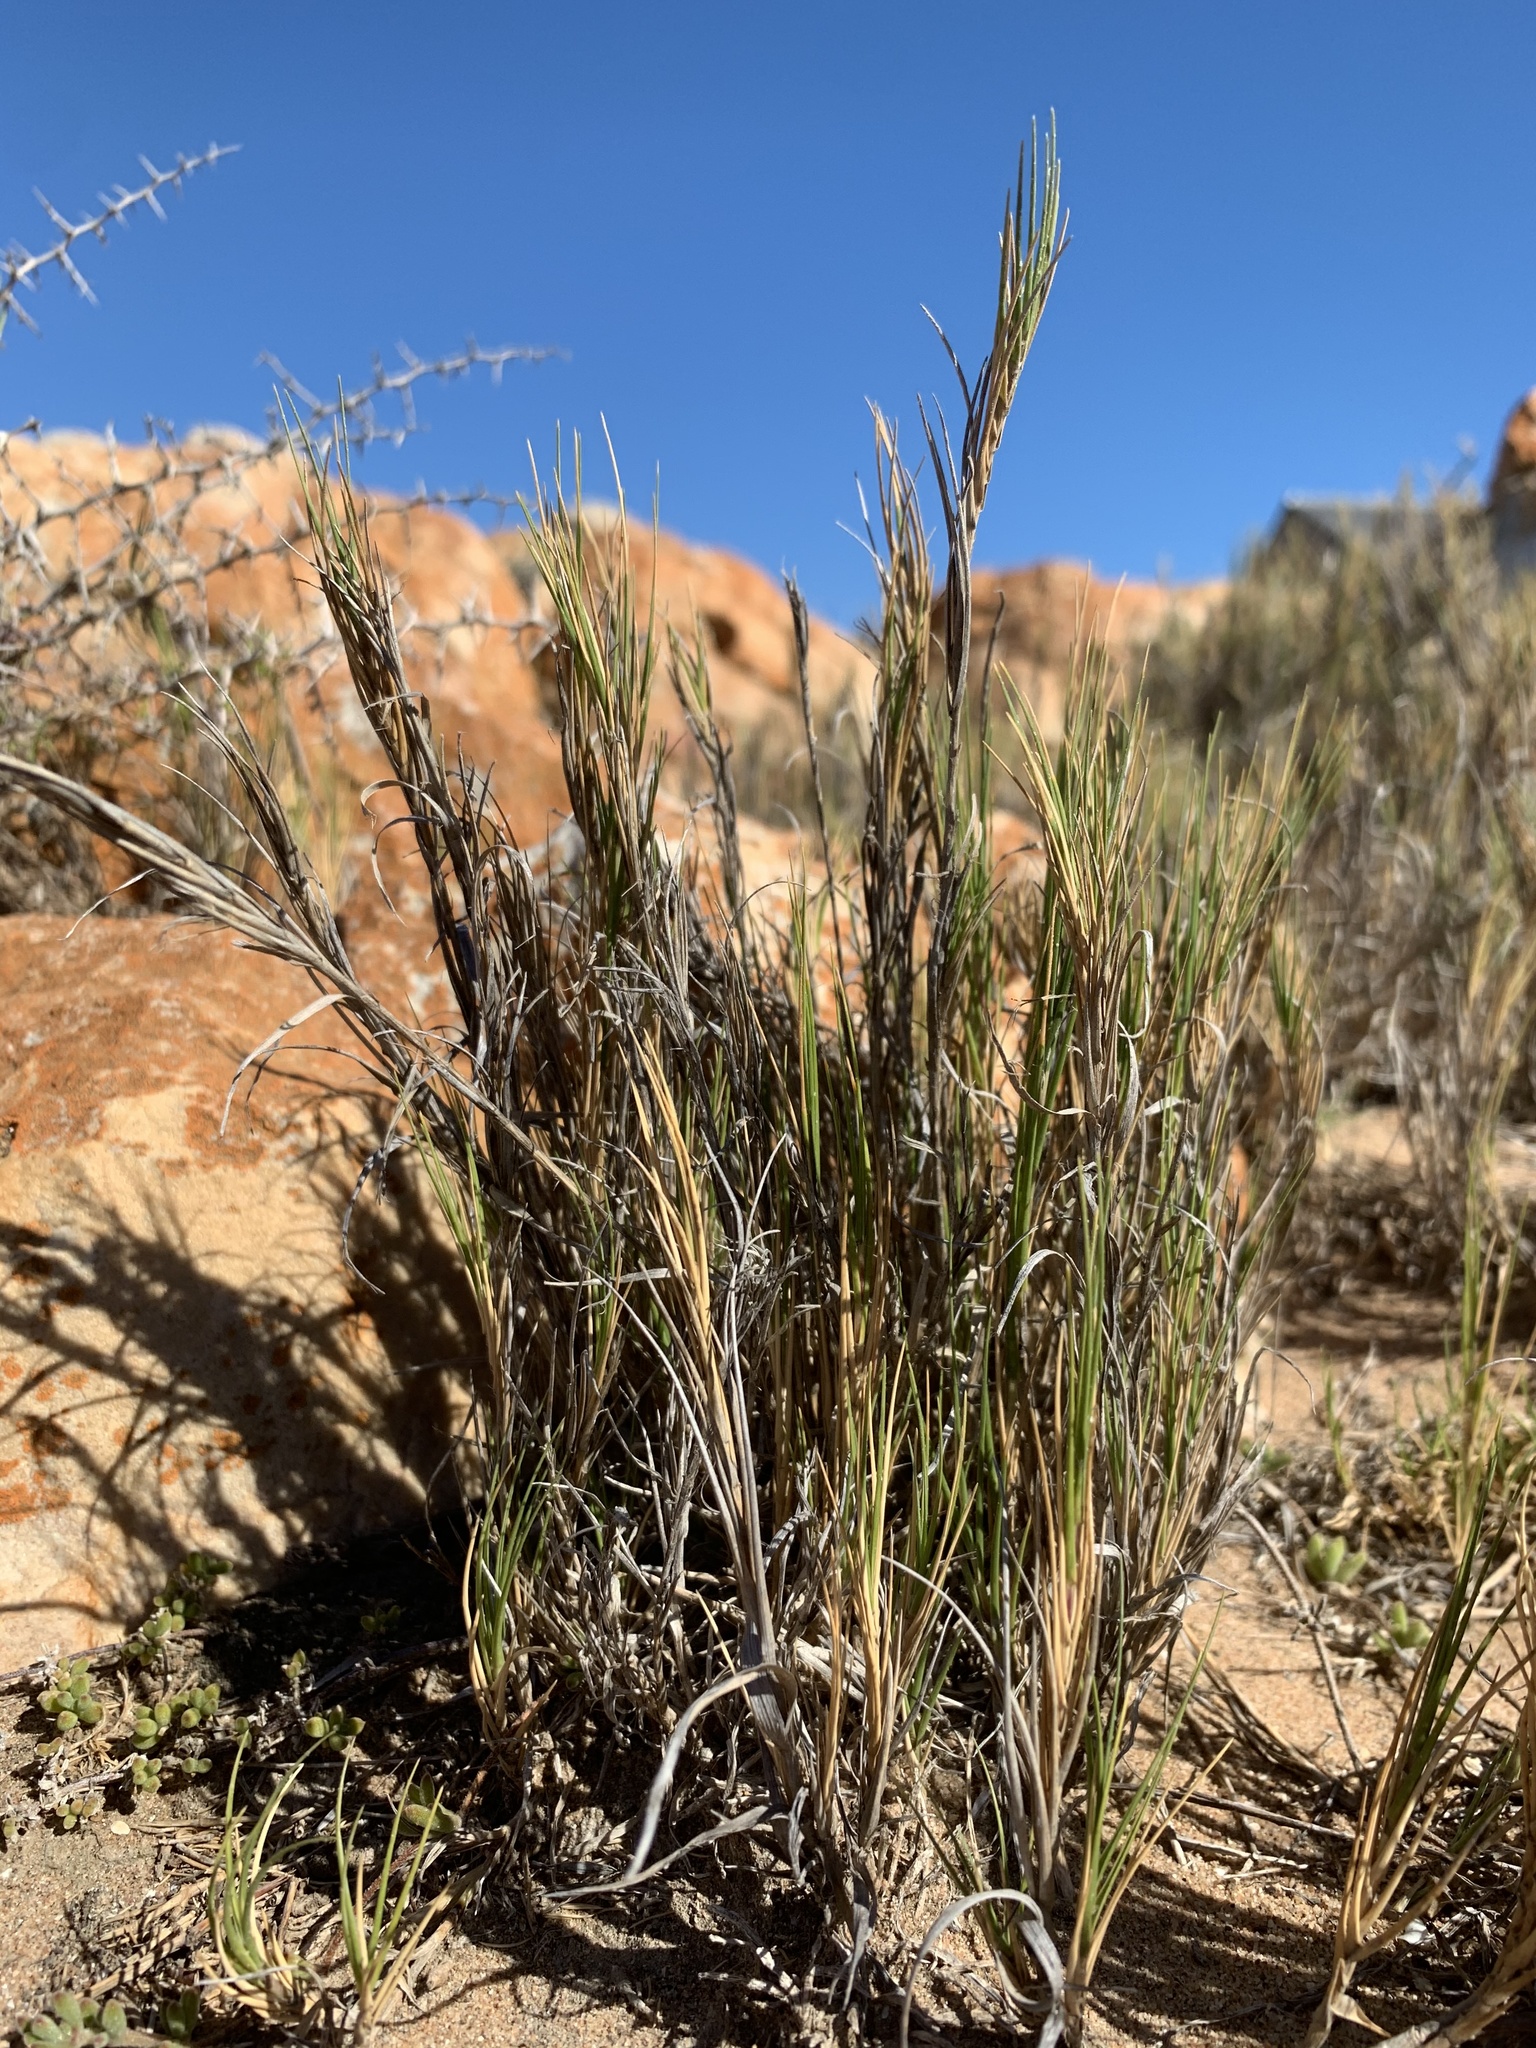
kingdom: Plantae
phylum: Tracheophyta
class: Liliopsida
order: Poales
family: Poaceae
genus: Sporobolus
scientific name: Sporobolus virginicus
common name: Beach dropseed
